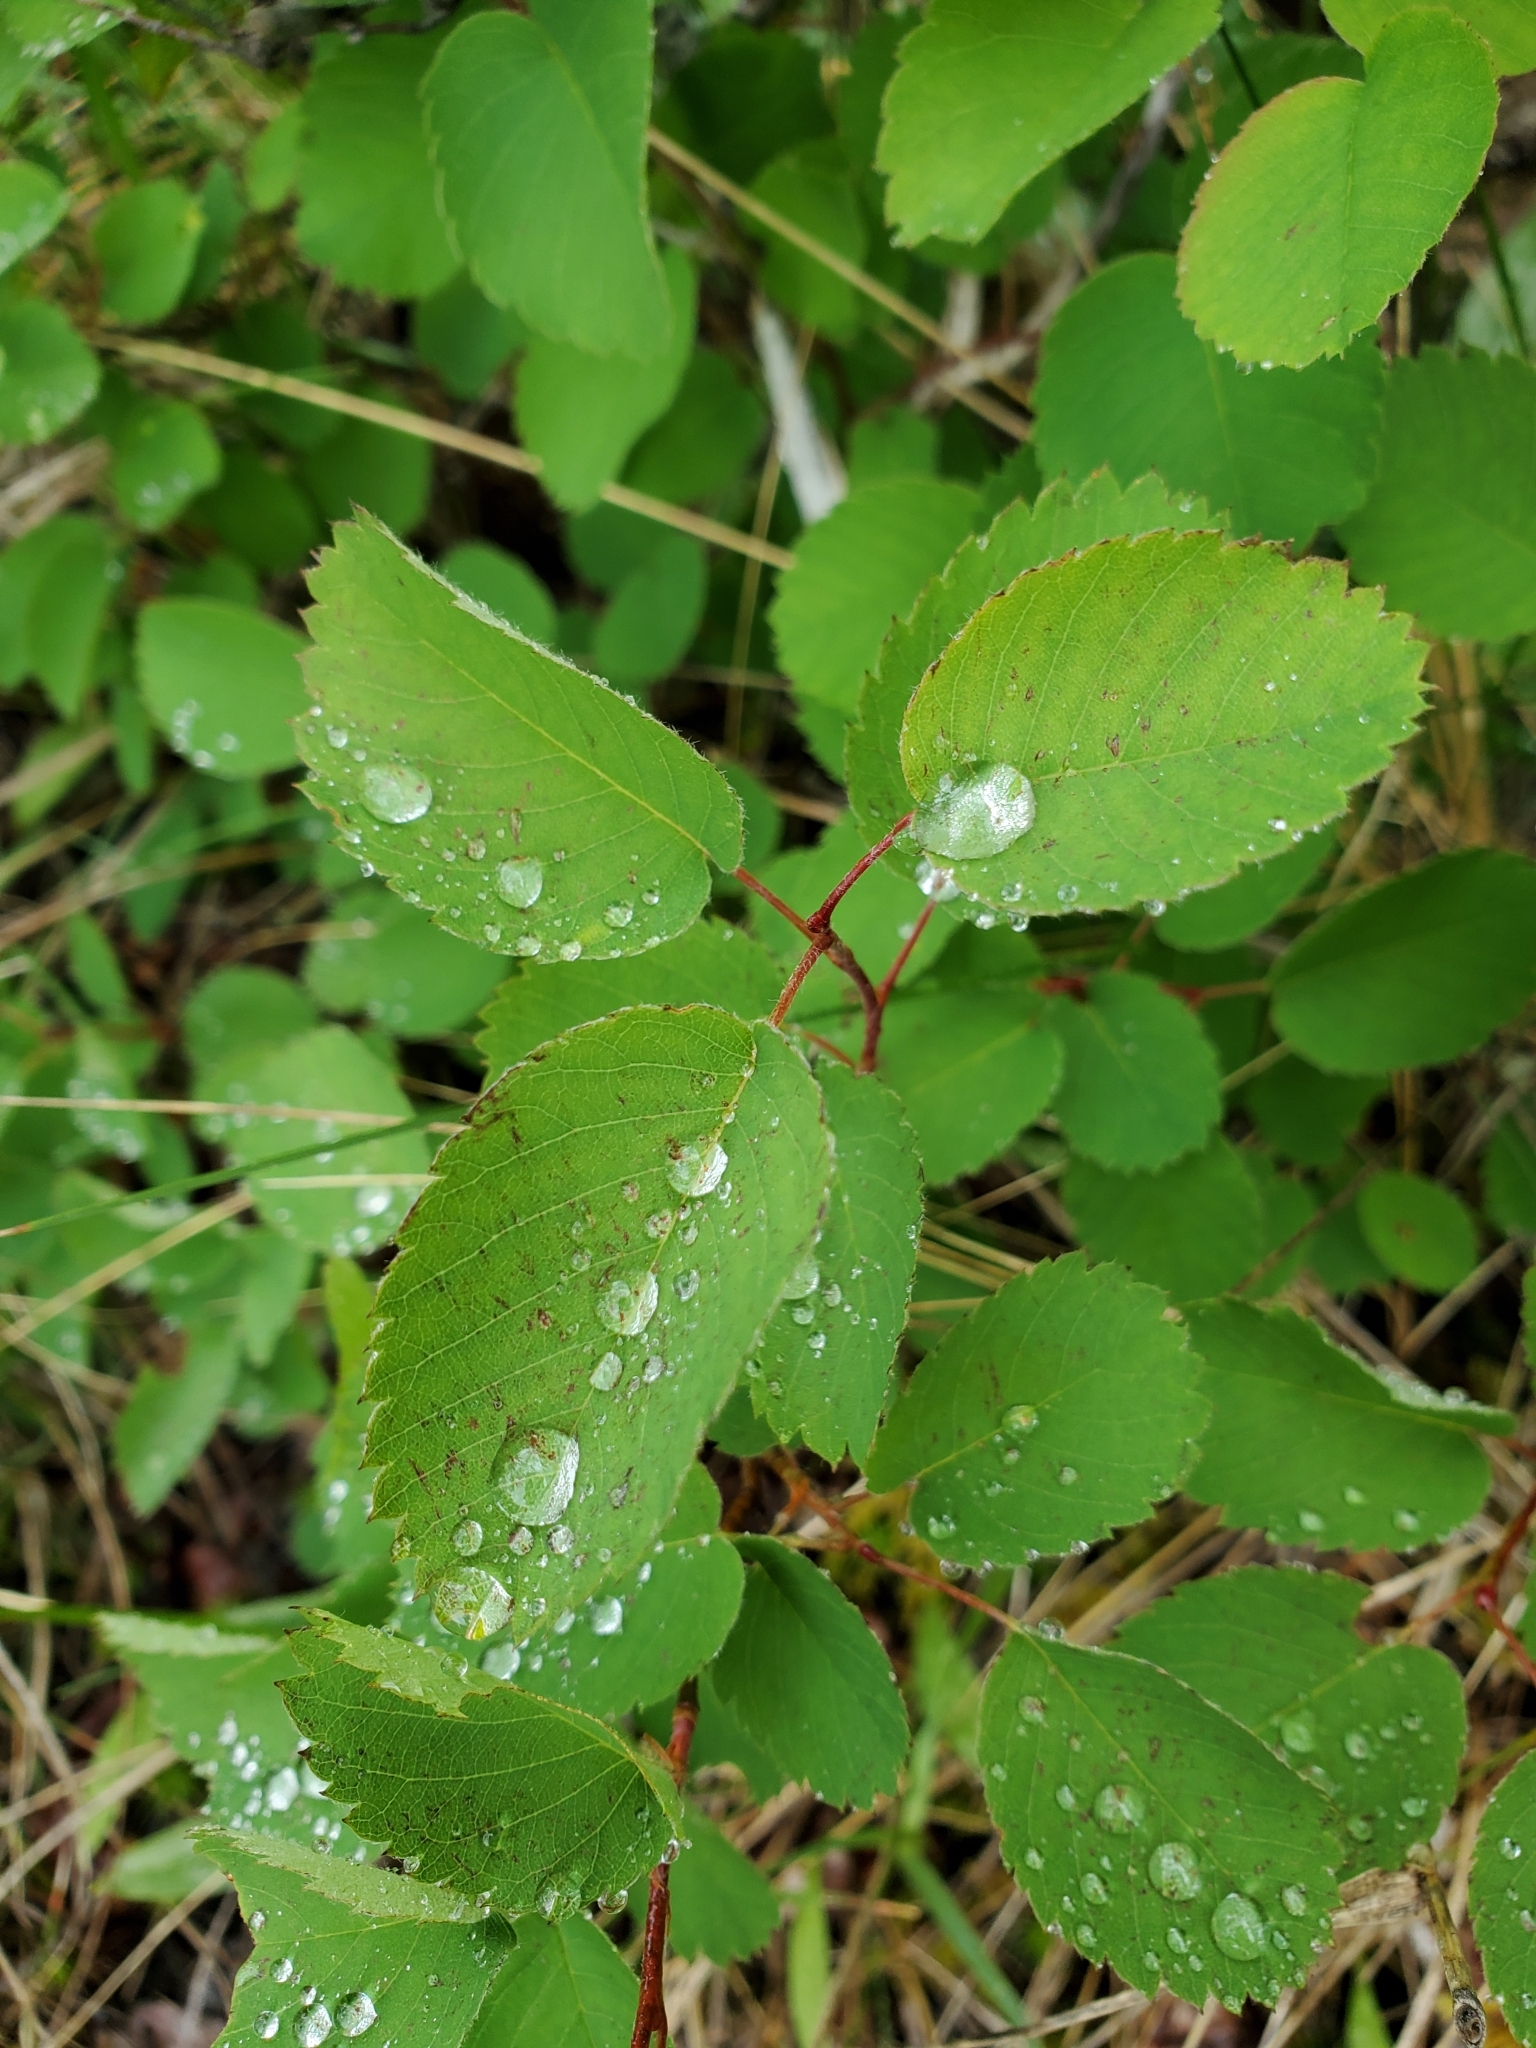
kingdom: Plantae
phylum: Tracheophyta
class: Magnoliopsida
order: Rosales
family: Rosaceae
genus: Amelanchier
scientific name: Amelanchier alnifolia
